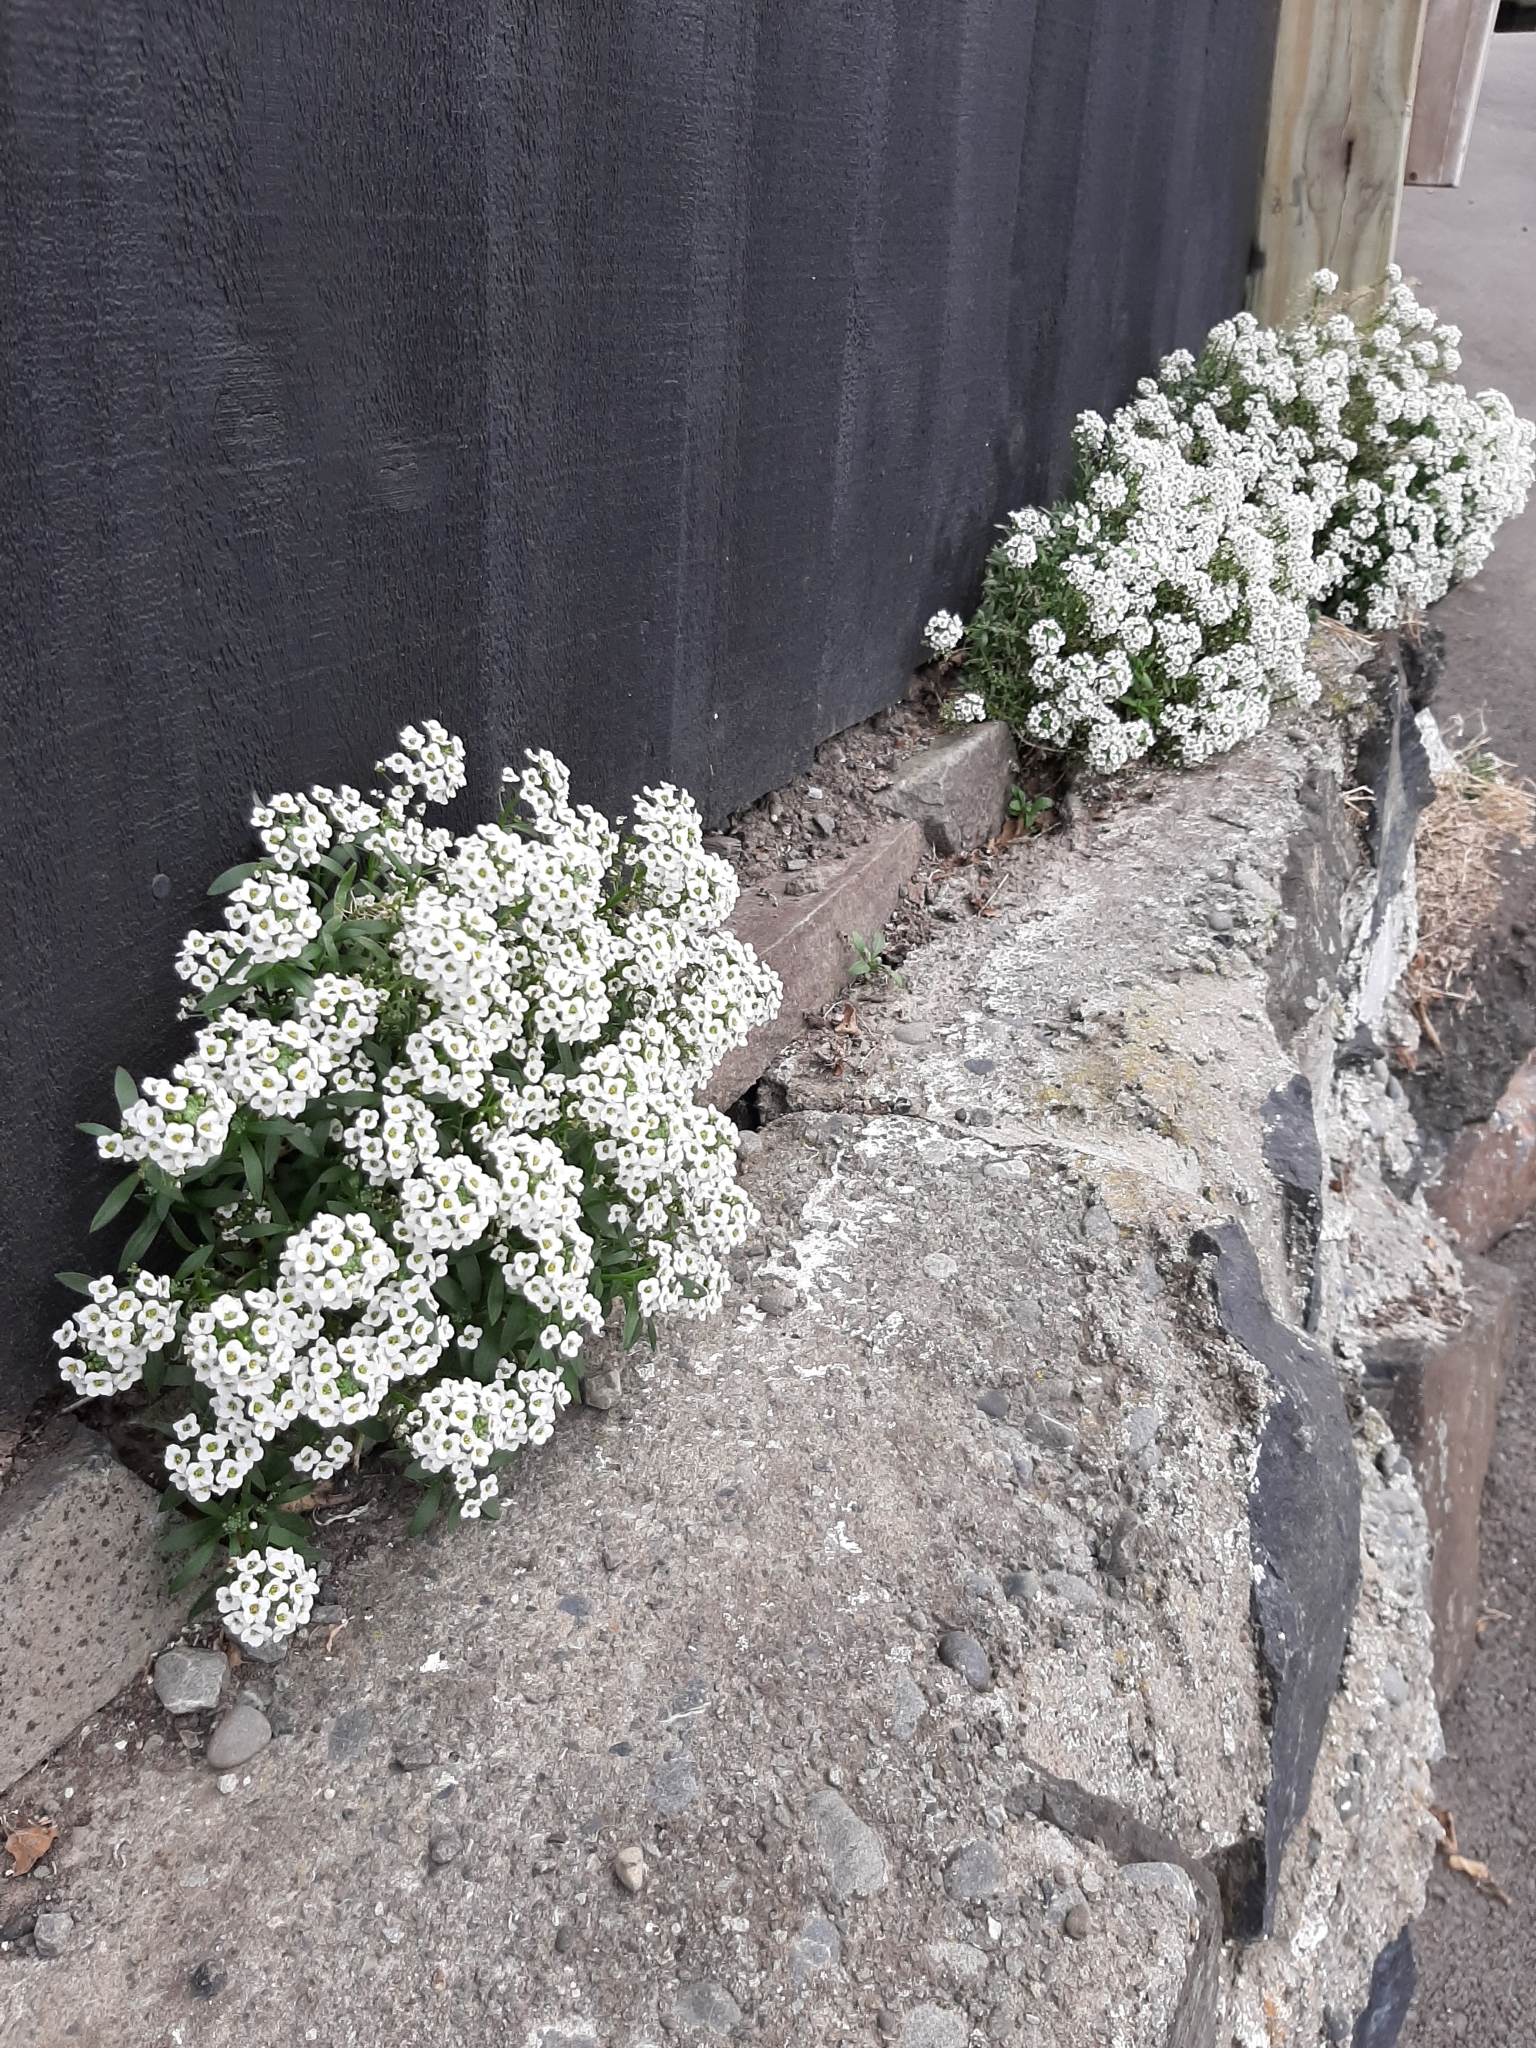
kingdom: Plantae
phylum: Tracheophyta
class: Magnoliopsida
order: Brassicales
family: Brassicaceae
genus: Lobularia
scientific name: Lobularia maritima
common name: Sweet alison
